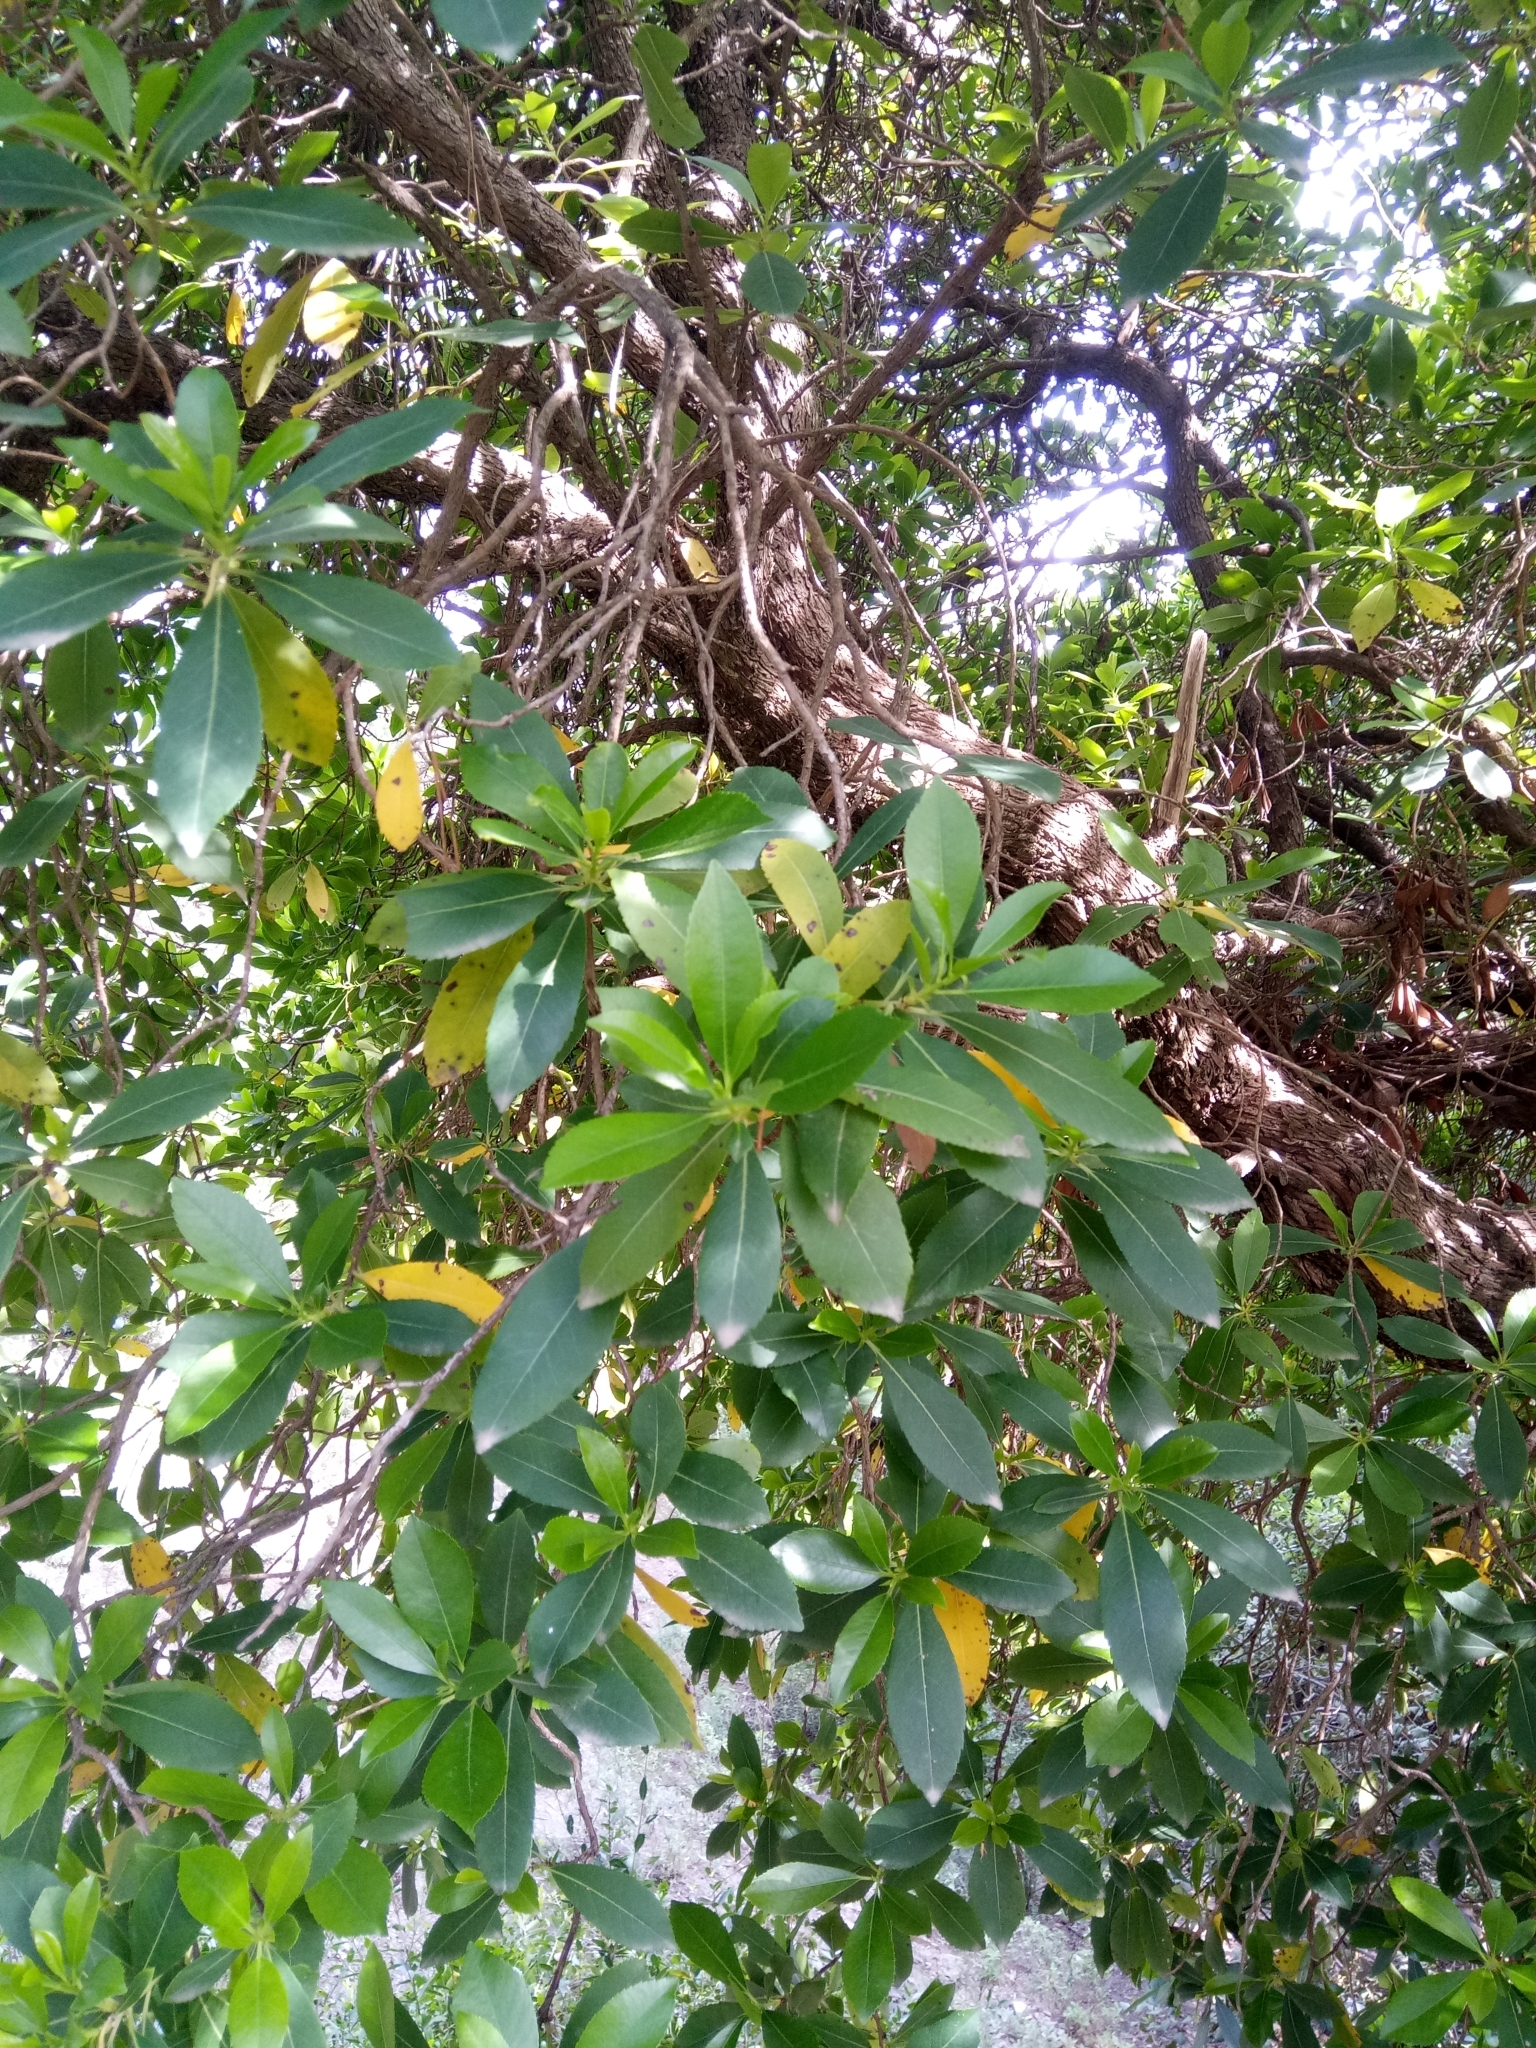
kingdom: Plantae
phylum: Tracheophyta
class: Magnoliopsida
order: Ericales
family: Ericaceae
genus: Arbutus
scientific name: Arbutus unedo
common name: Strawberry-tree
